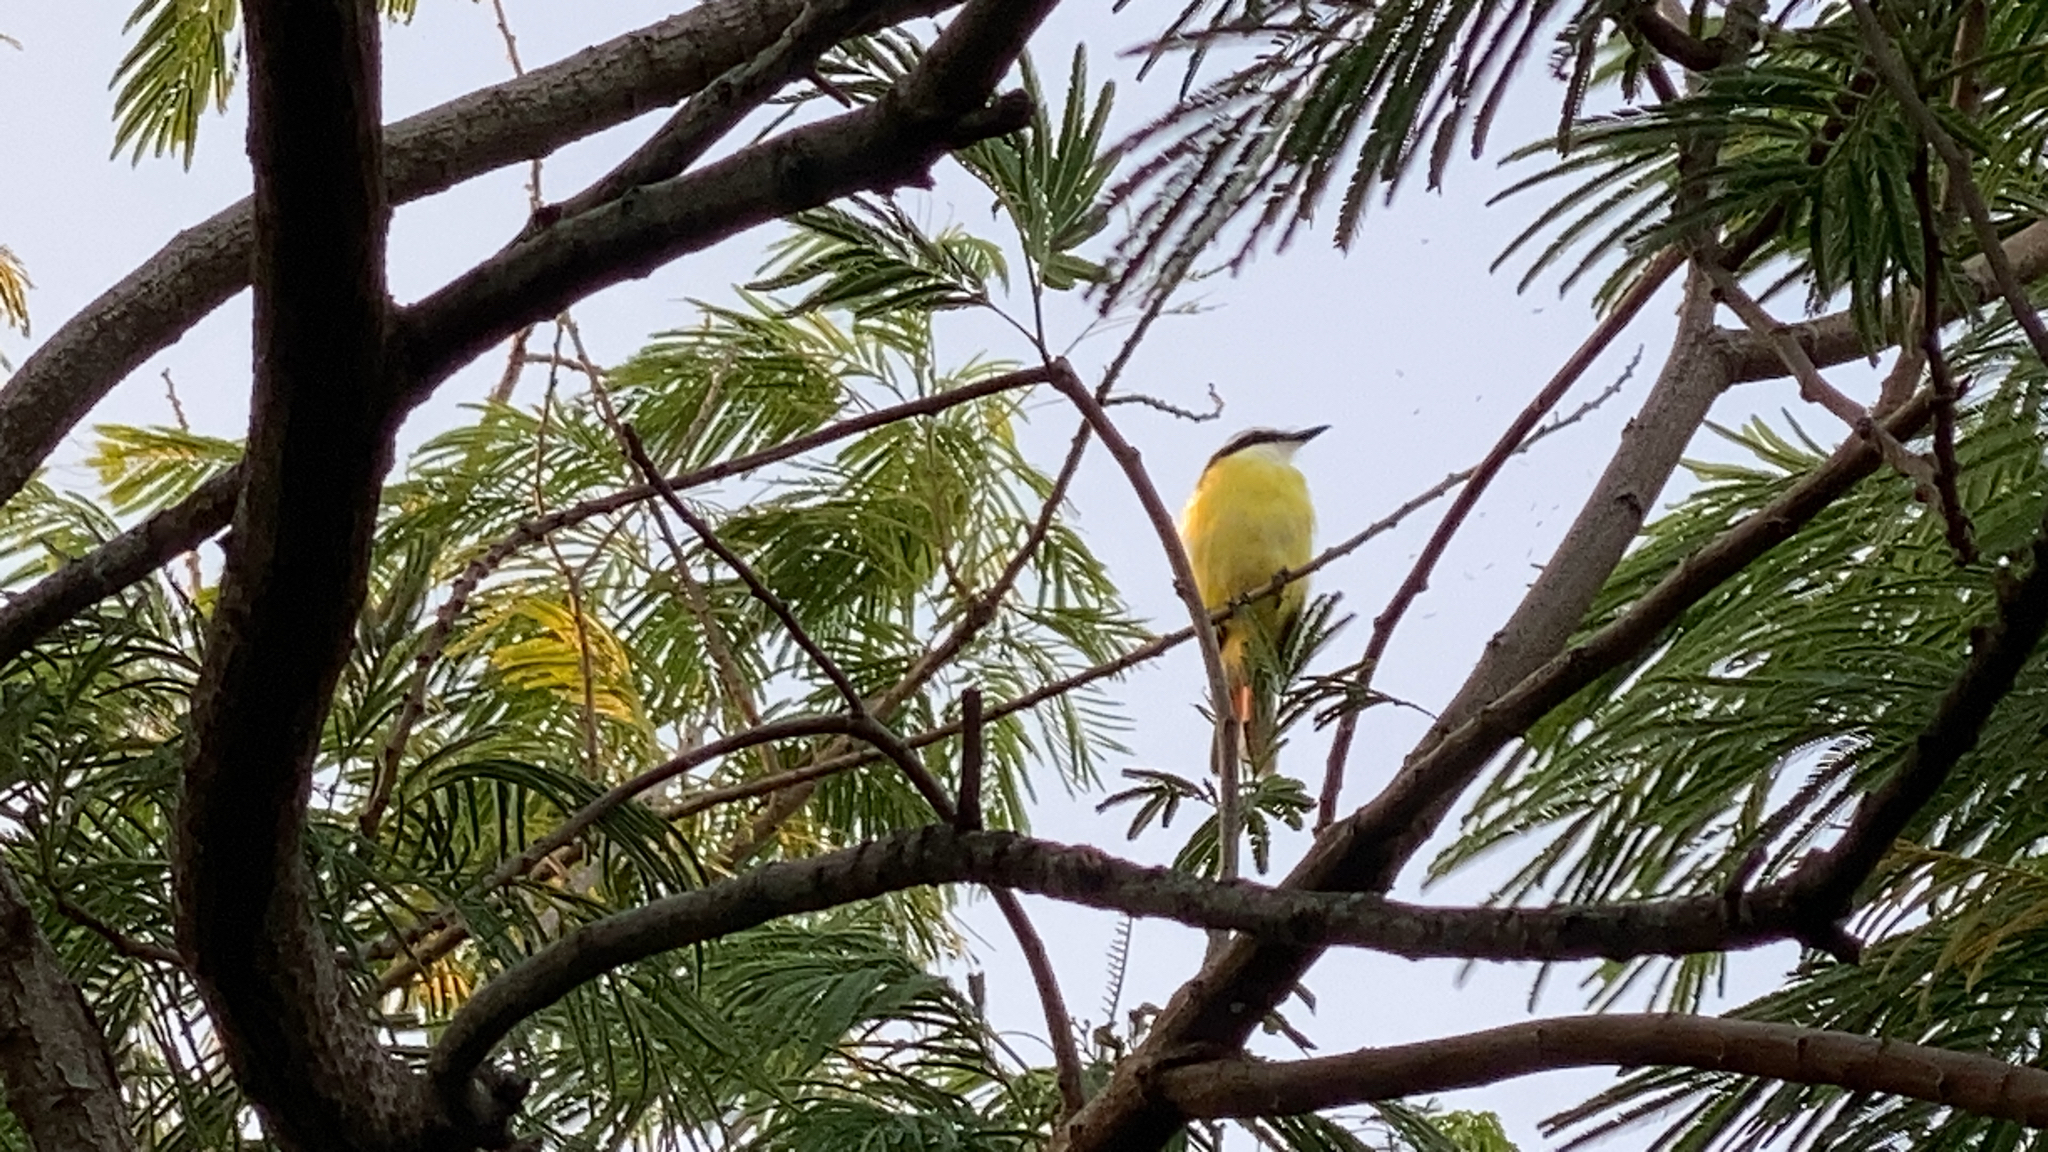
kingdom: Animalia
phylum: Chordata
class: Aves
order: Passeriformes
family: Tyrannidae
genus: Pitangus
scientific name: Pitangus sulphuratus
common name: Great kiskadee
